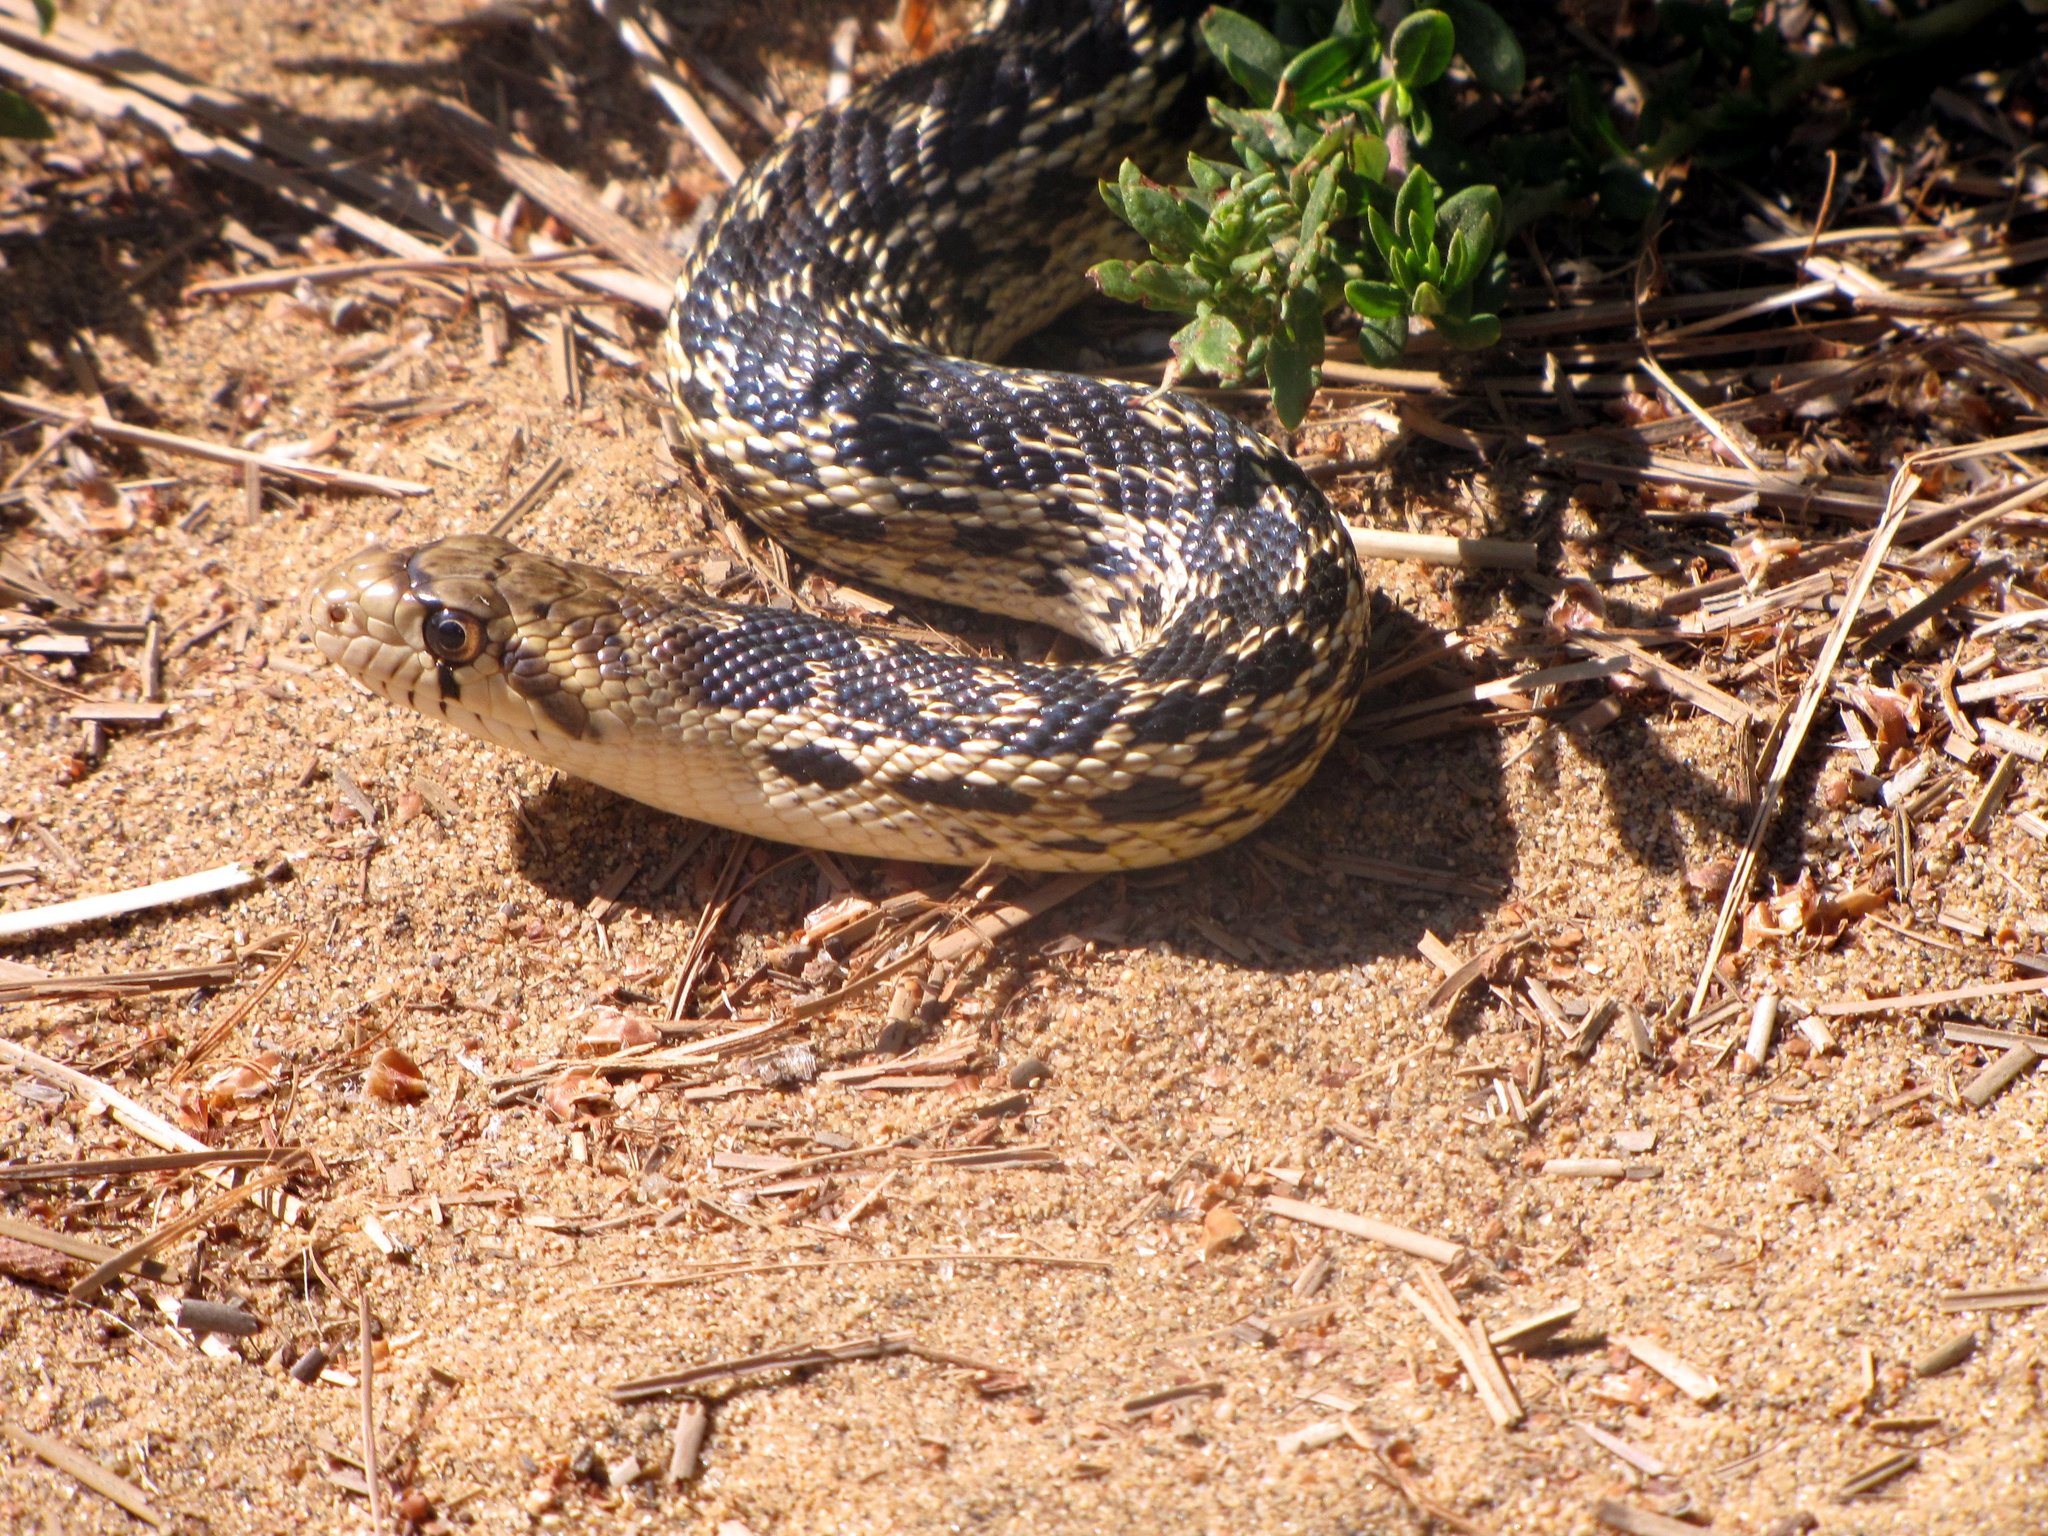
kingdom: Animalia
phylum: Chordata
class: Squamata
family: Colubridae
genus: Pituophis
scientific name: Pituophis catenifer
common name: Gopher snake
